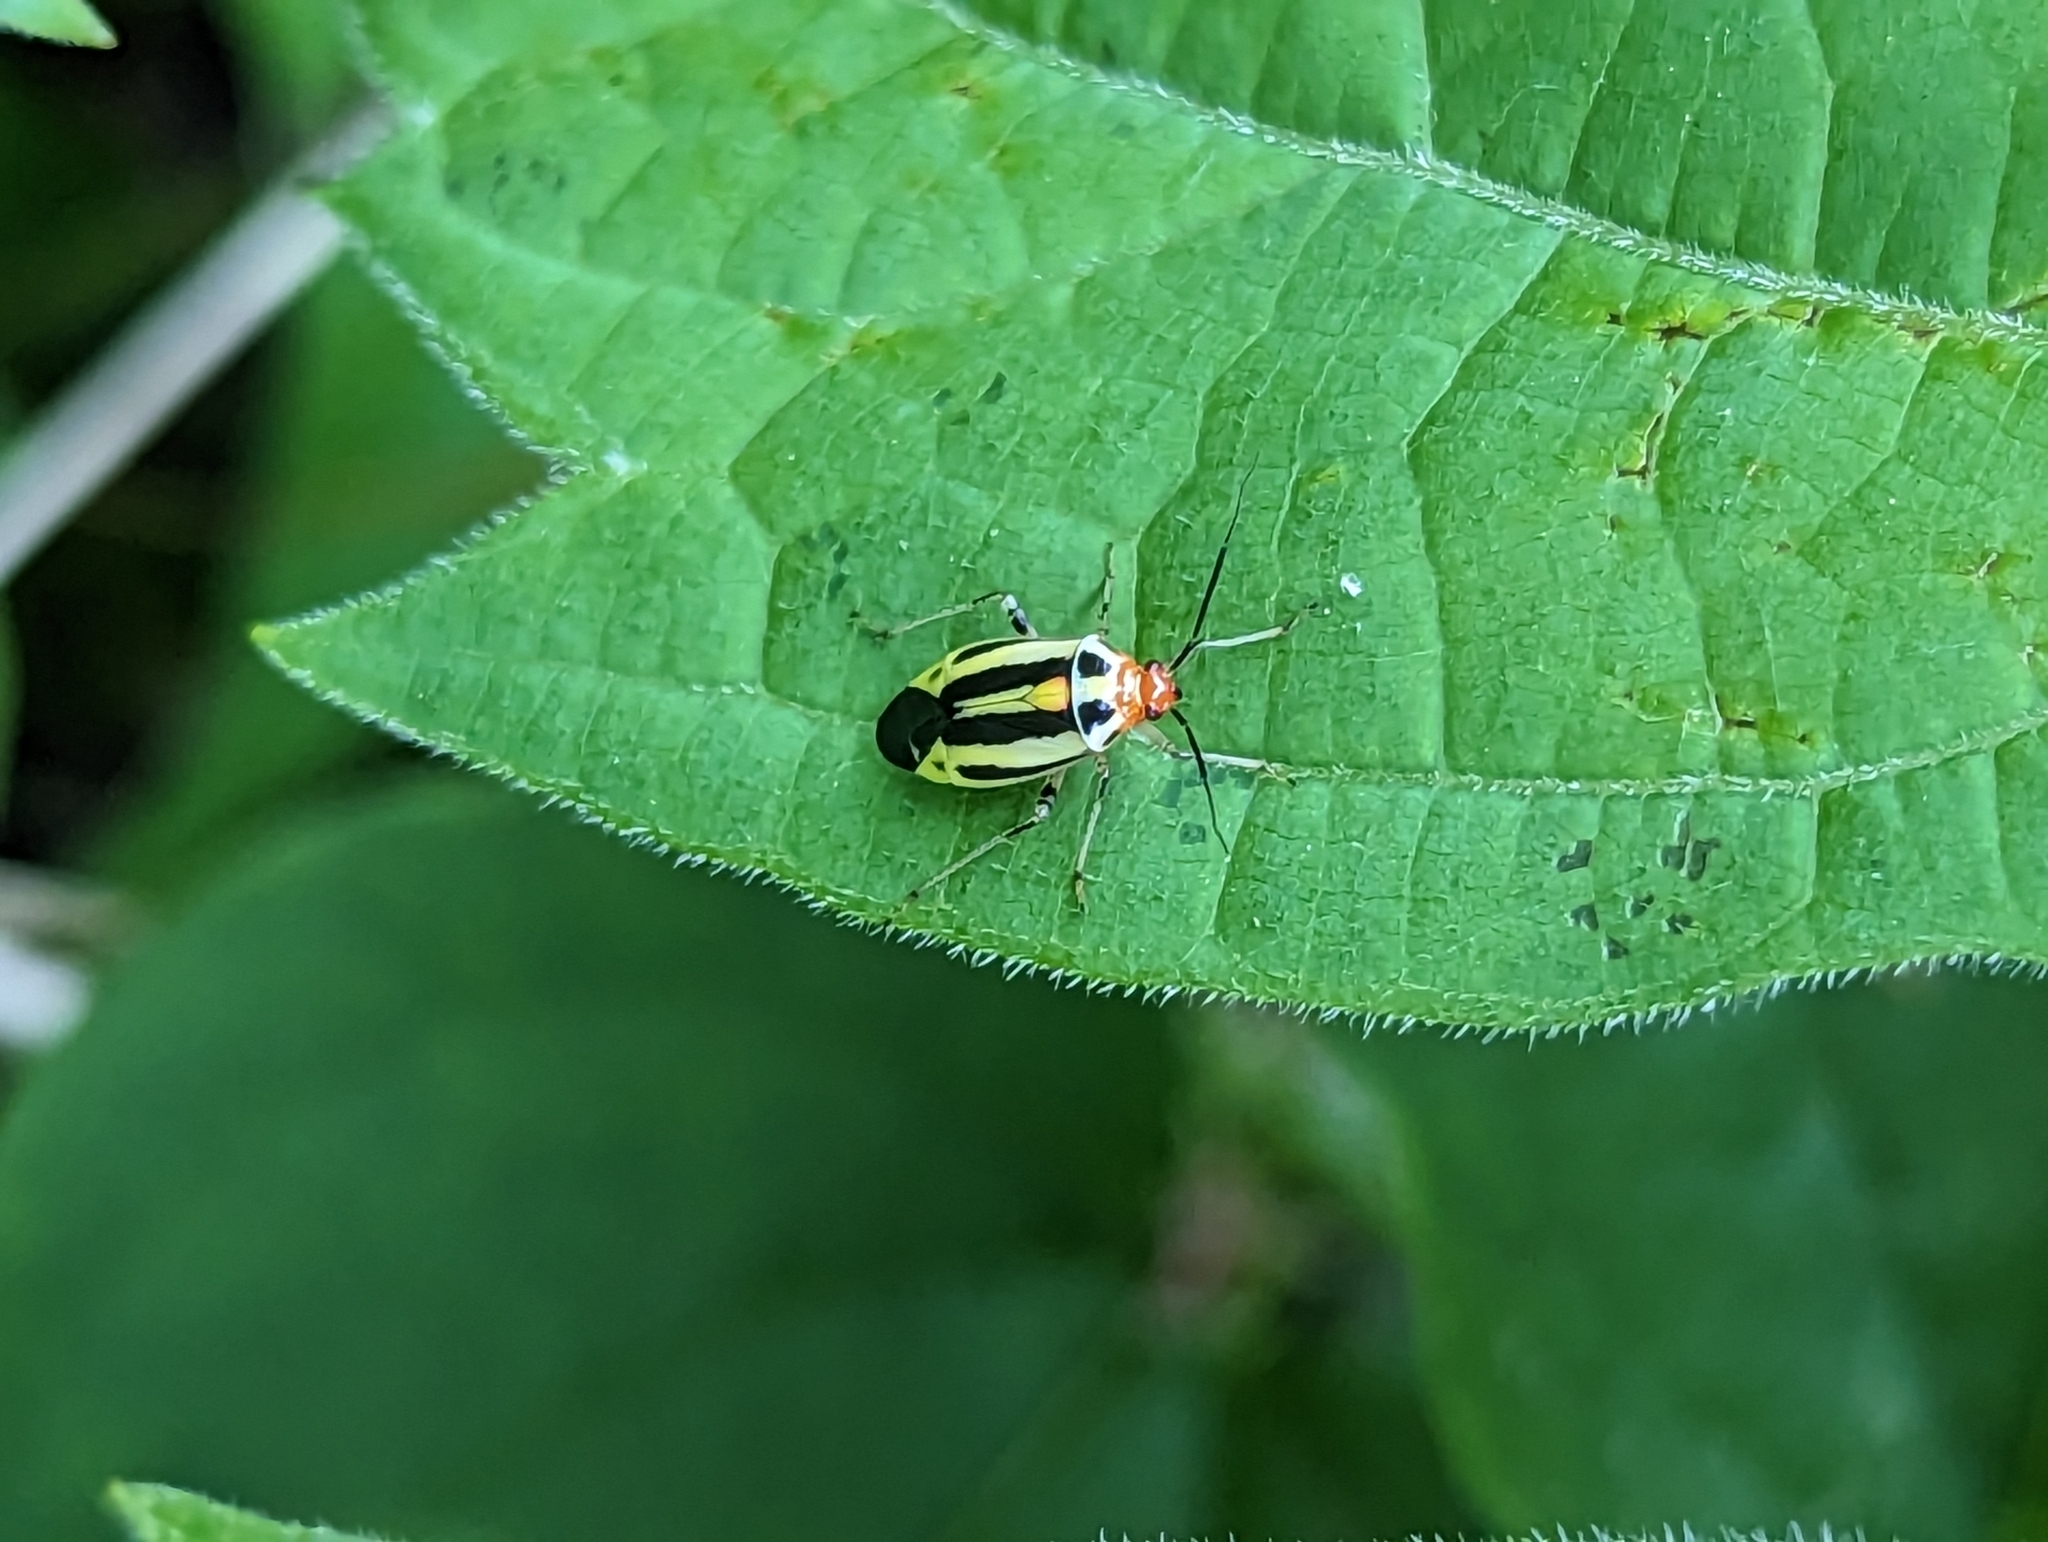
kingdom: Animalia
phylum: Arthropoda
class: Insecta
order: Hemiptera
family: Miridae
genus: Poecilocapsus
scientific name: Poecilocapsus lineatus
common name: Four-lined plant bug
